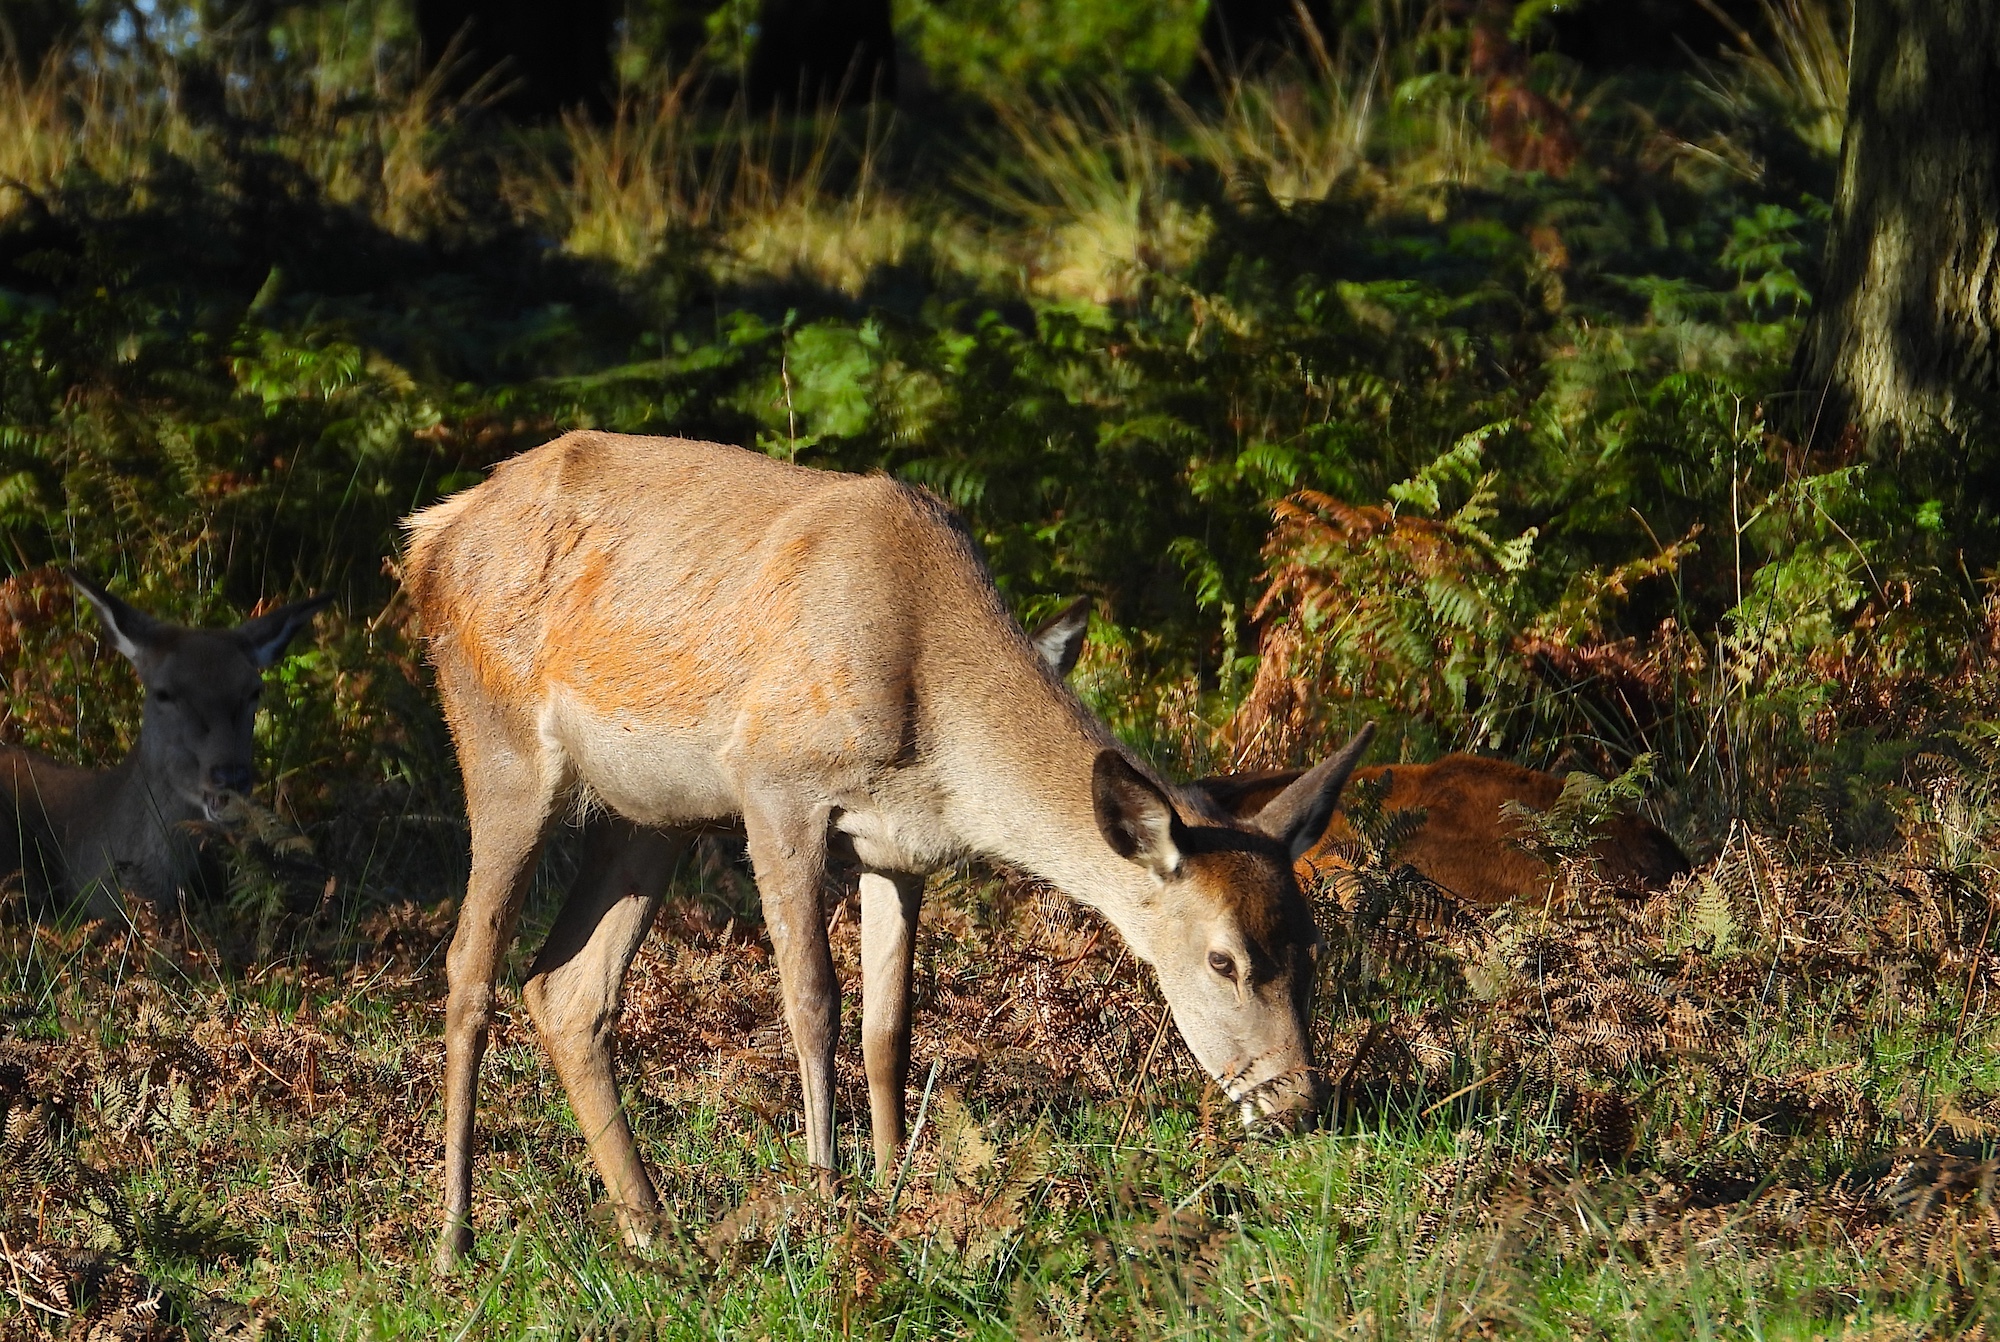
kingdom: Animalia
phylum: Chordata
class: Mammalia
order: Artiodactyla
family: Cervidae
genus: Cervus
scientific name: Cervus elaphus
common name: Red deer
